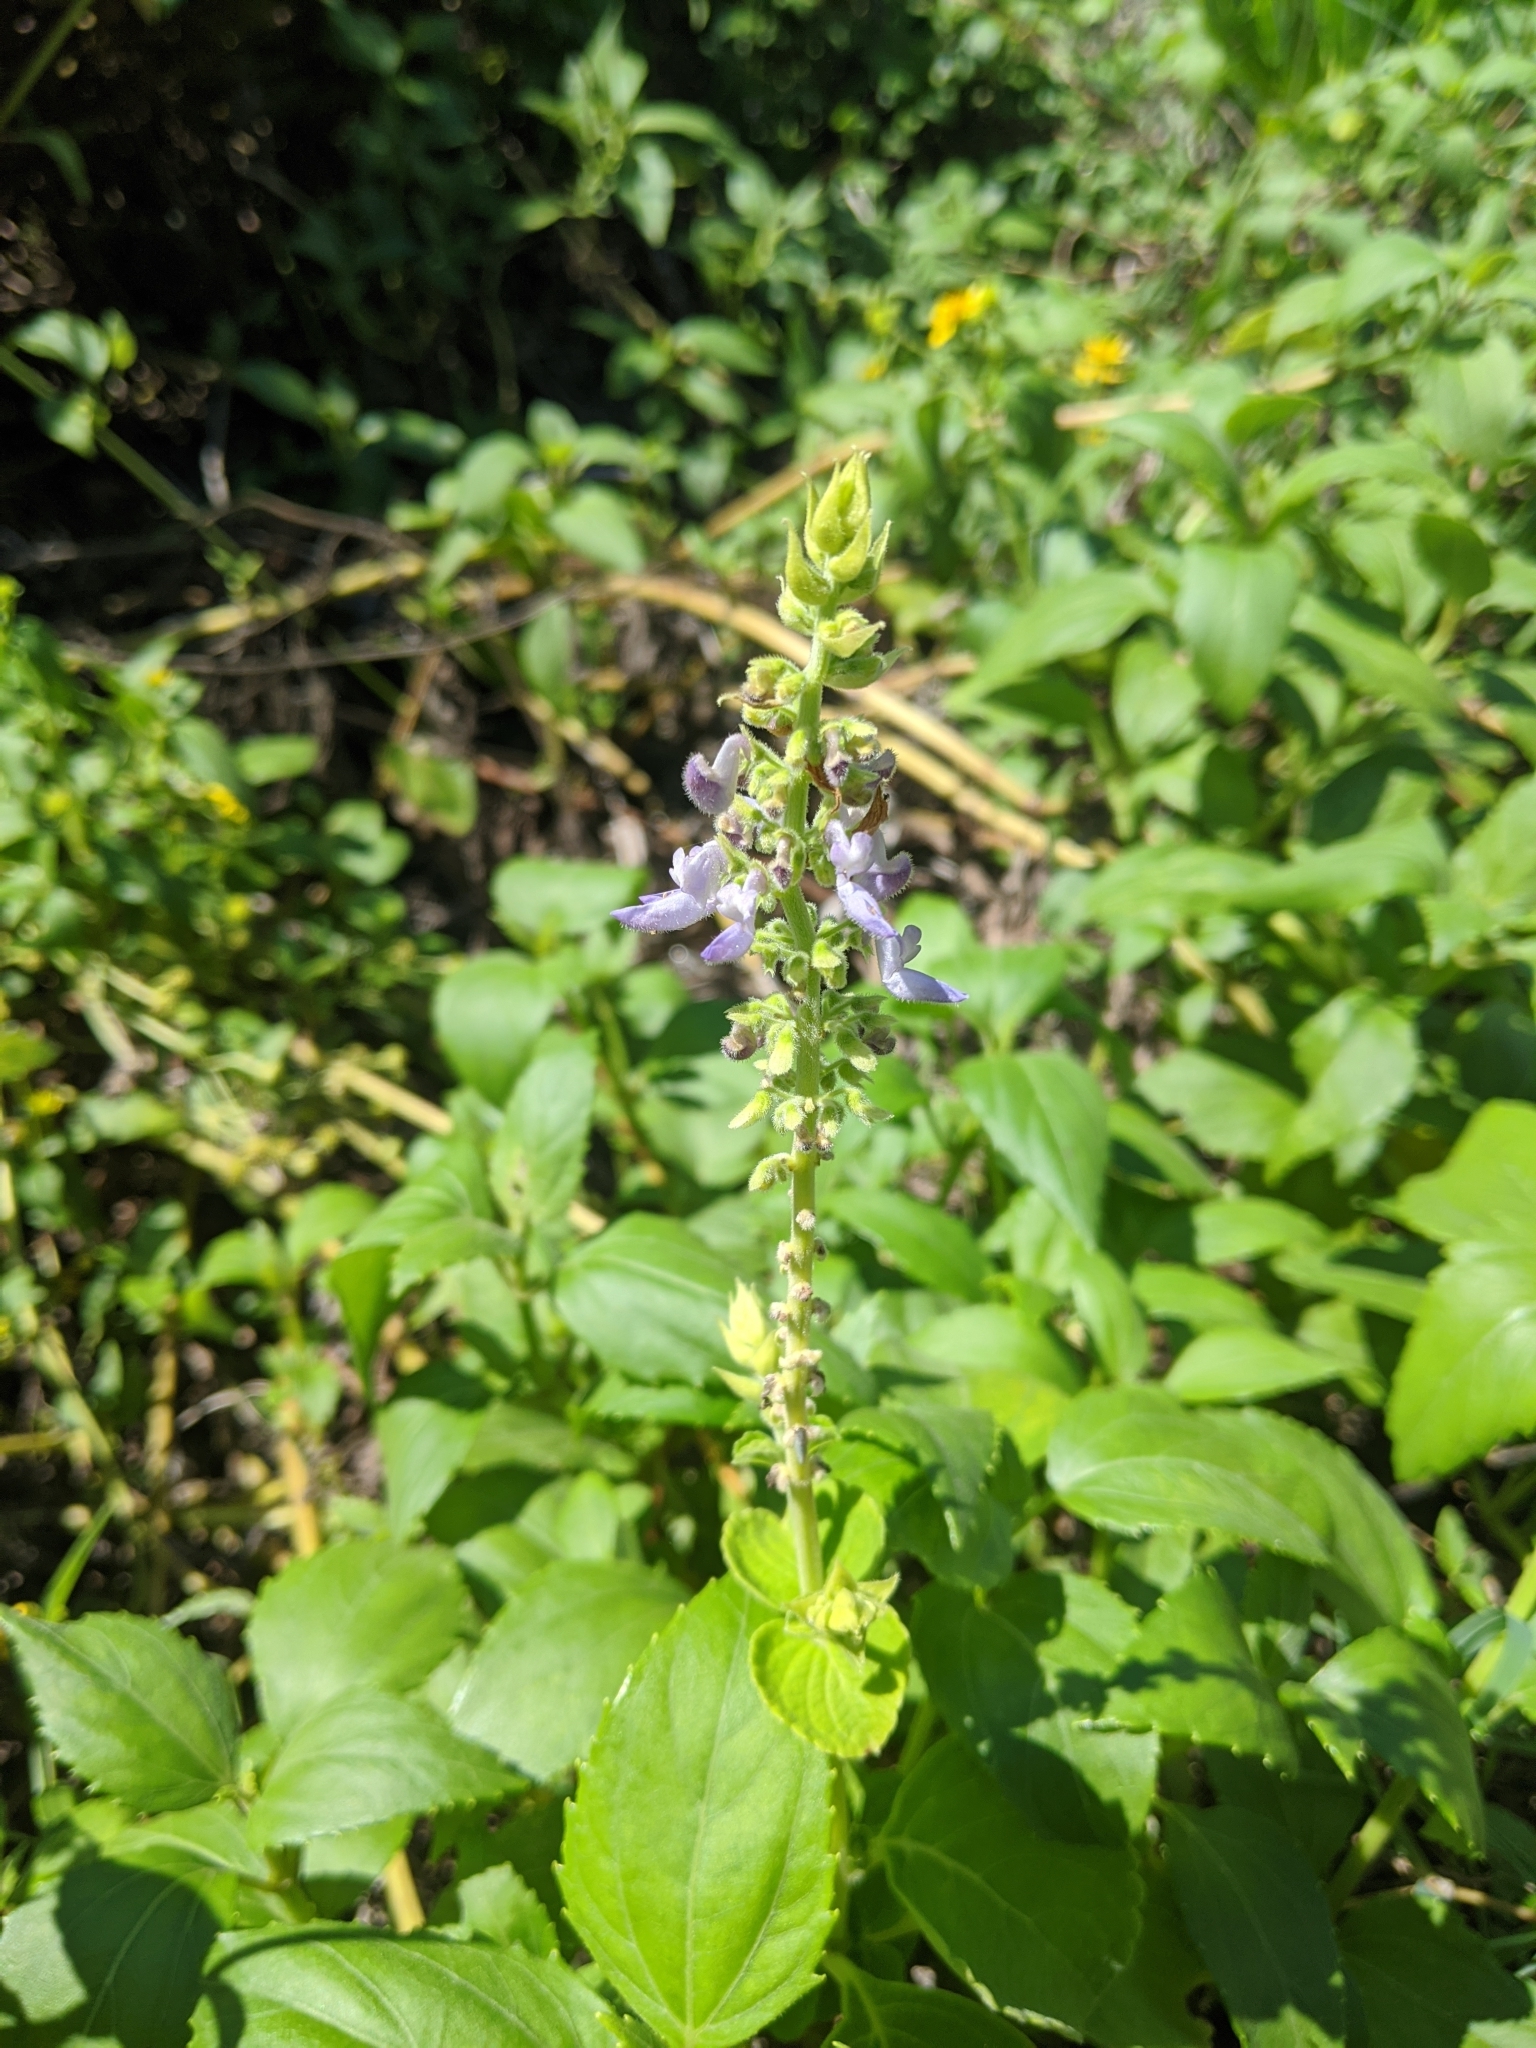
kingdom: Plantae
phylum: Tracheophyta
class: Magnoliopsida
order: Lamiales
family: Lamiaceae
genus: Coleus
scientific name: Coleus scutellarioides
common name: Coleus
